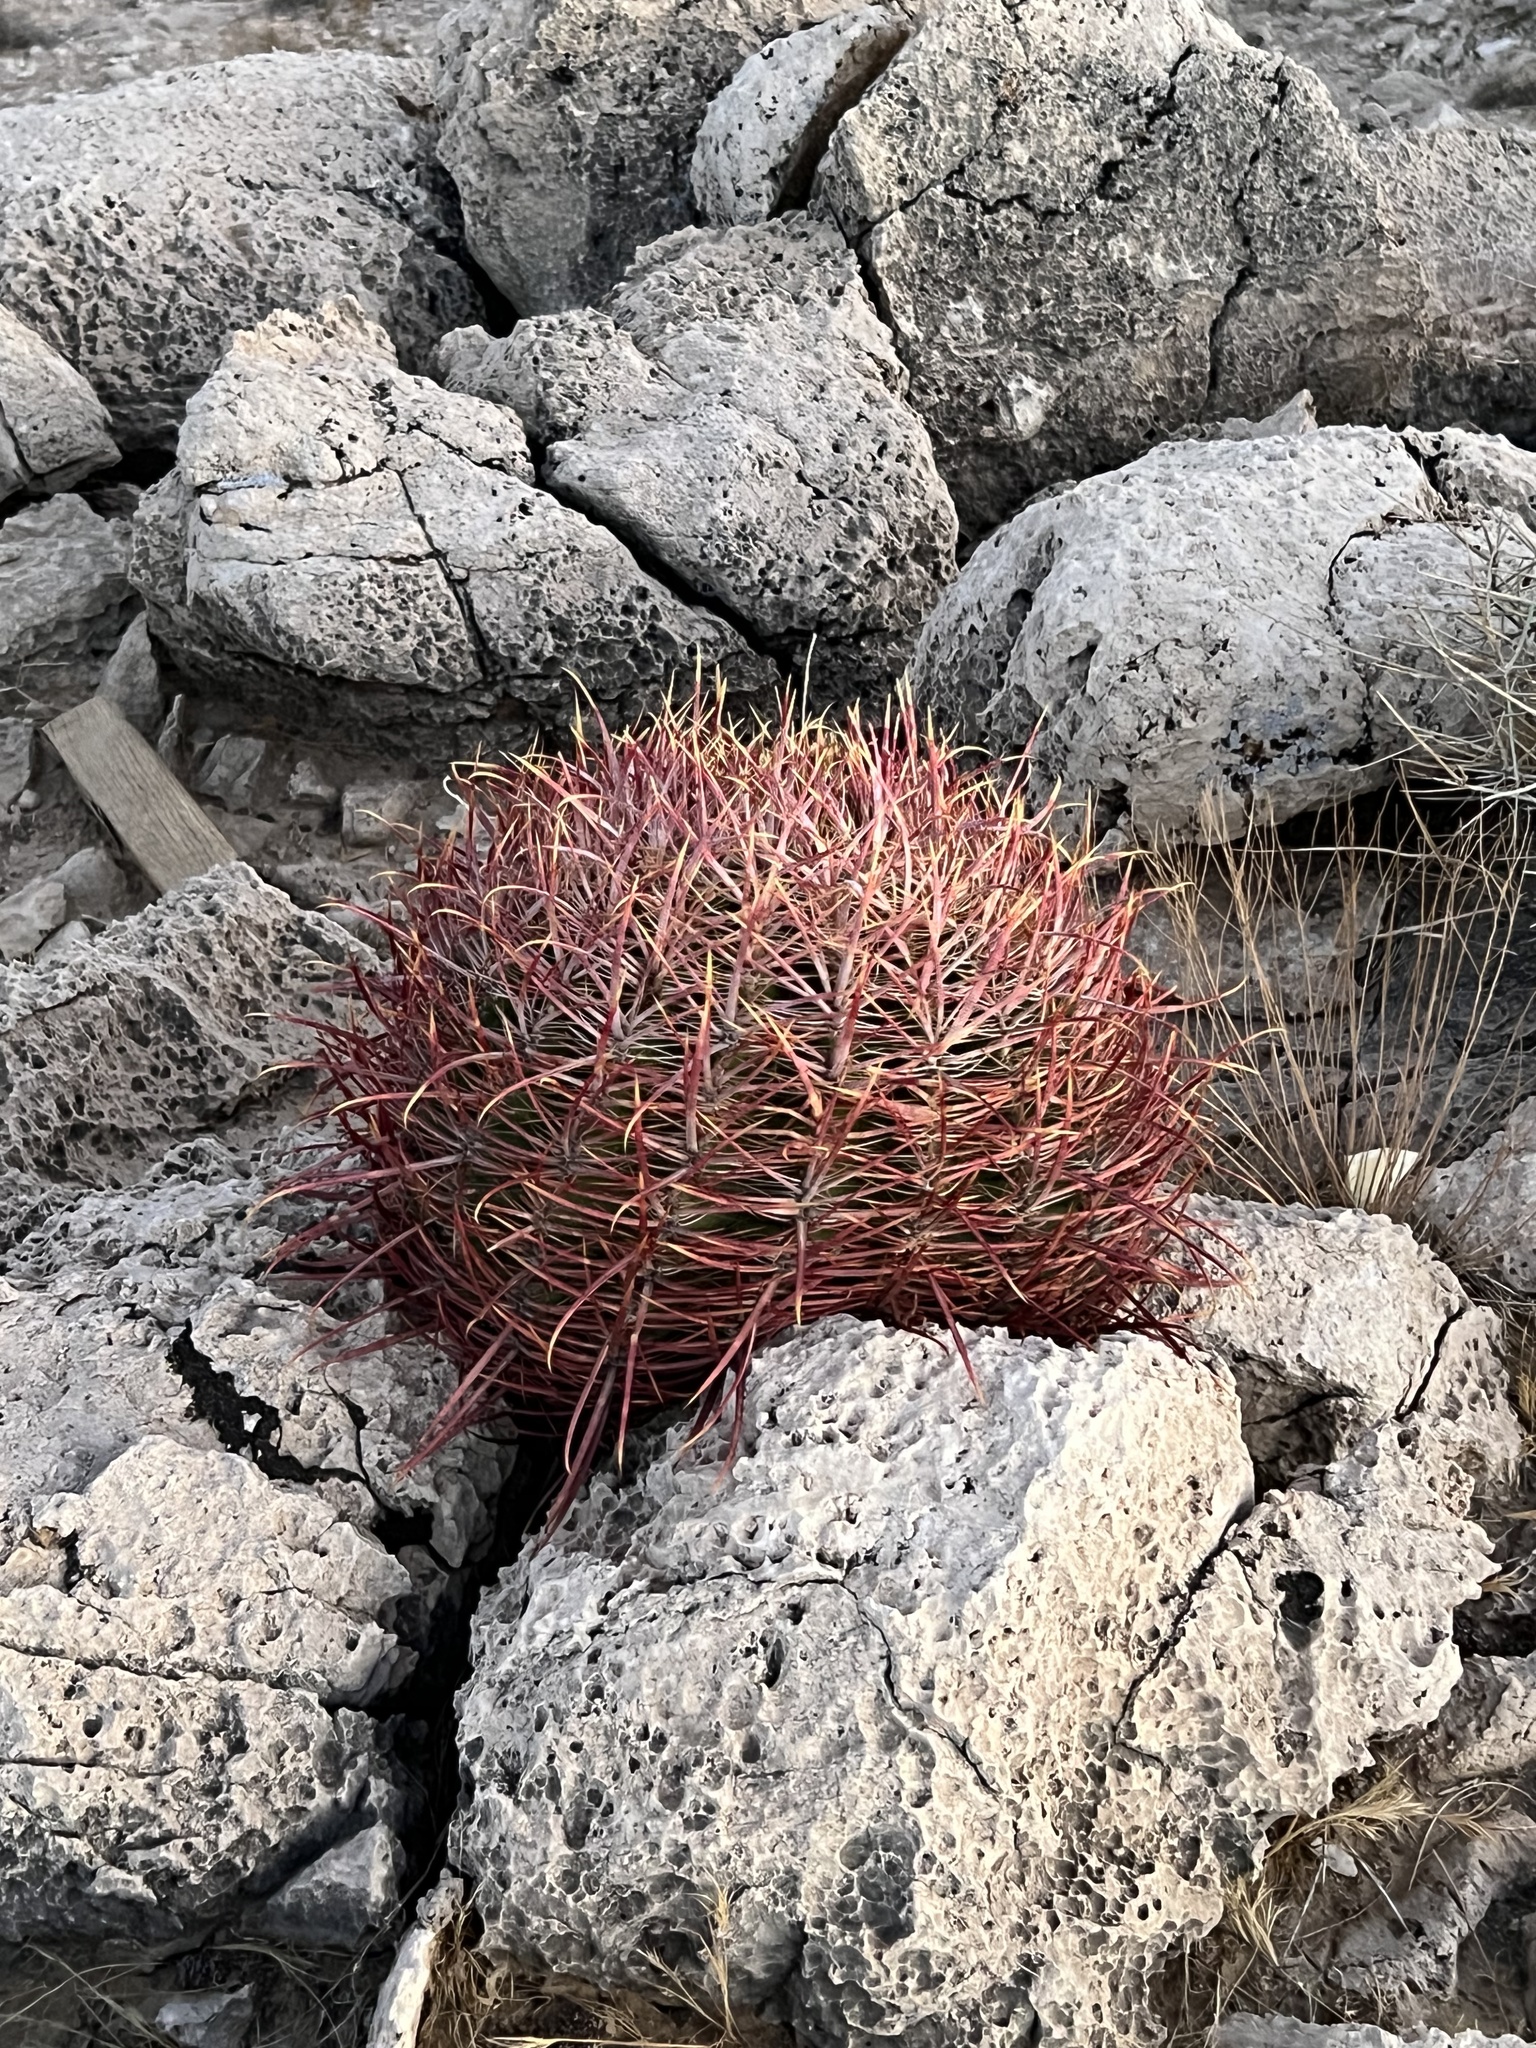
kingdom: Plantae
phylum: Tracheophyta
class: Magnoliopsida
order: Caryophyllales
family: Cactaceae
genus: Ferocactus
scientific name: Ferocactus cylindraceus
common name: California barrel cactus
